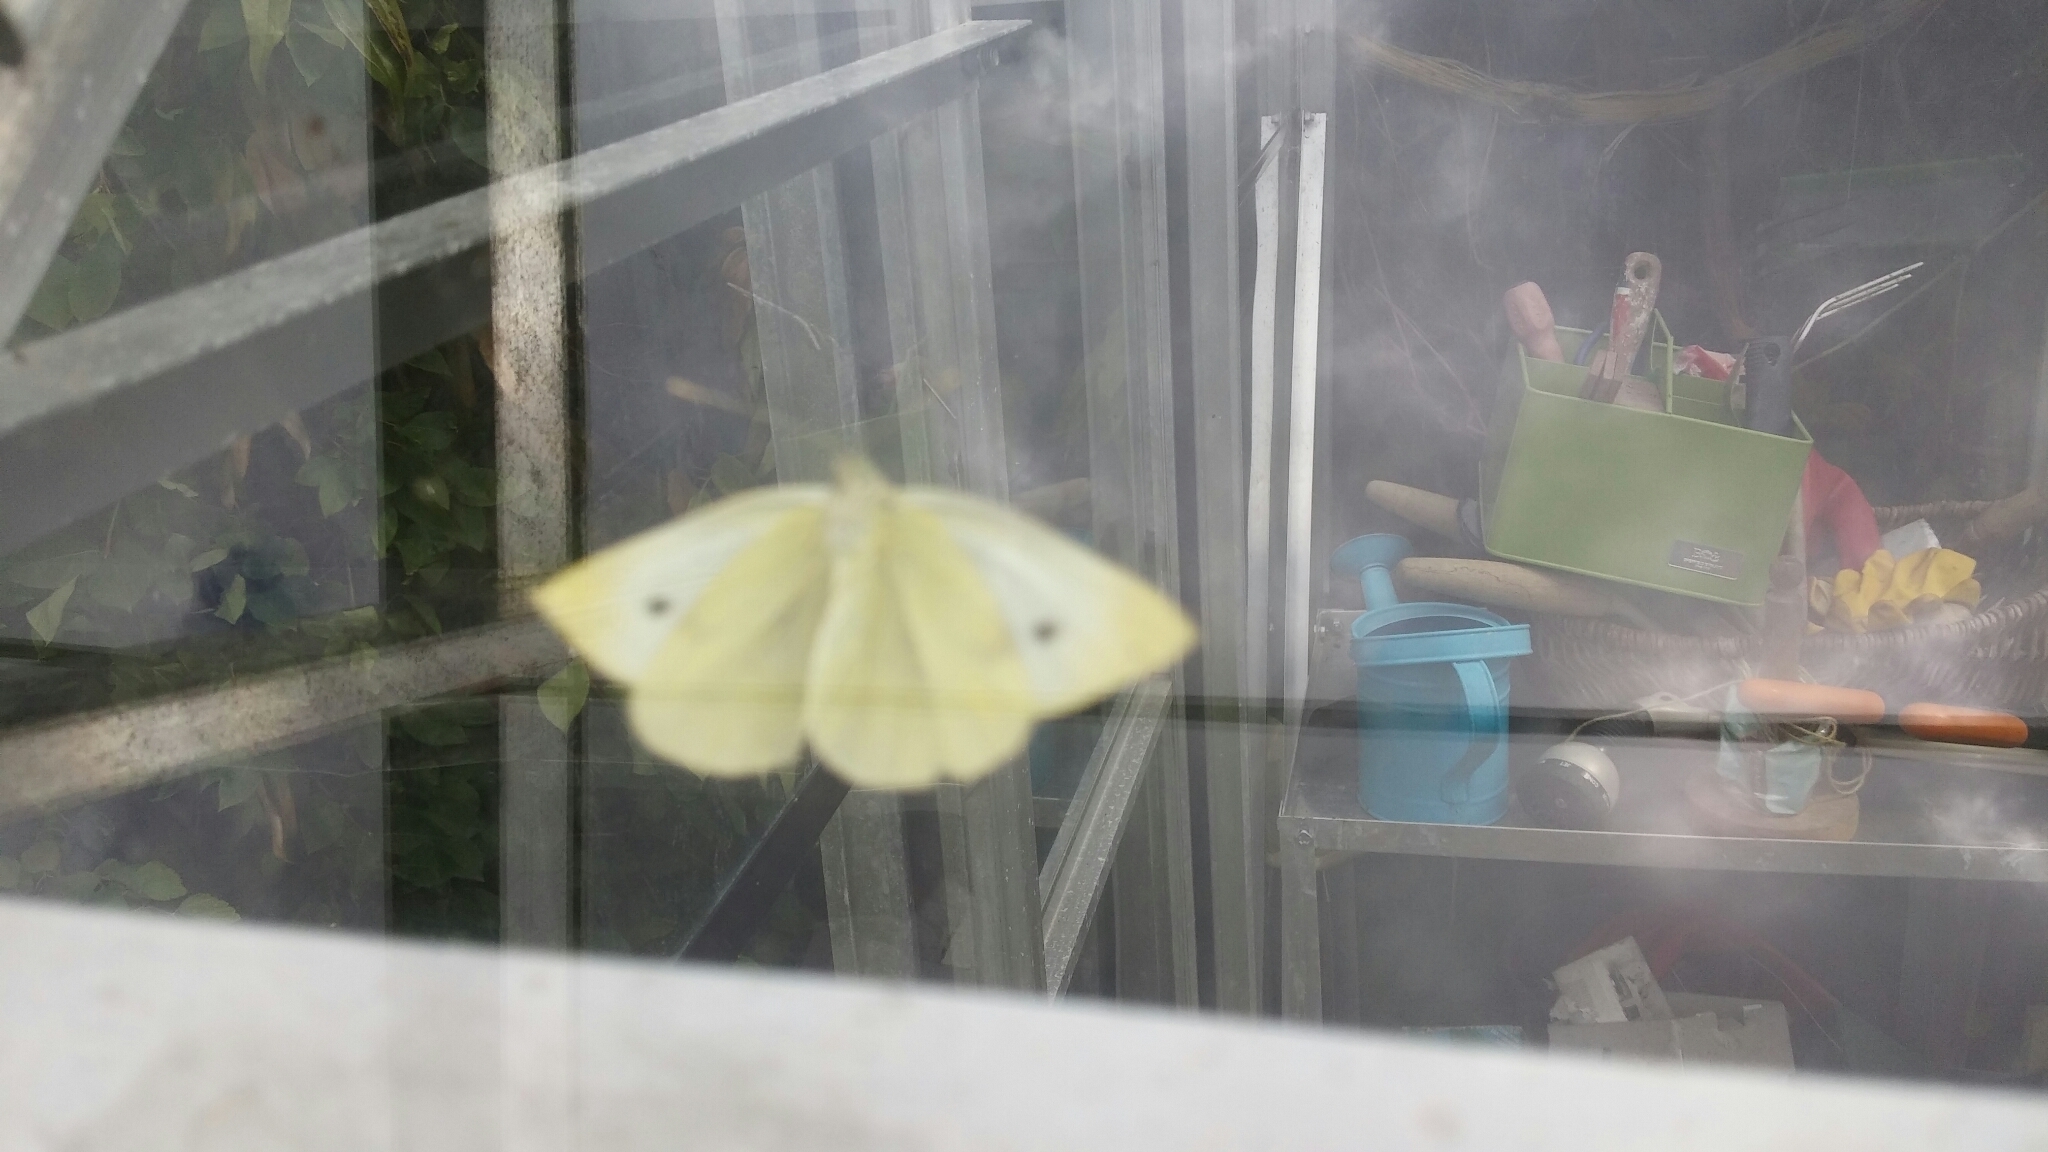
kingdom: Animalia
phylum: Arthropoda
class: Insecta
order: Lepidoptera
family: Pieridae
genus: Pieris
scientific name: Pieris rapae
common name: Small white
